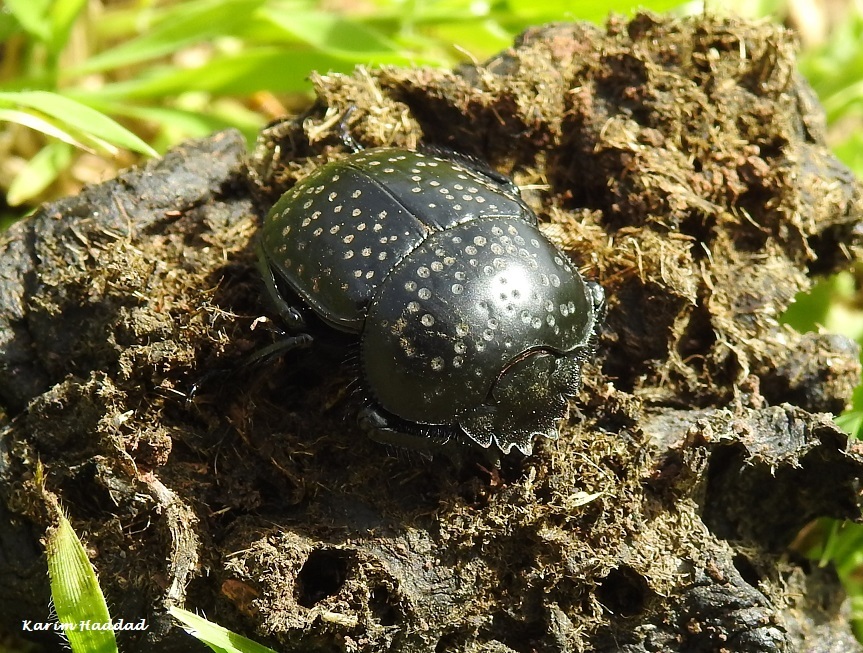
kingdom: Animalia
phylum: Arthropoda
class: Insecta
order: Coleoptera
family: Scarabaeidae
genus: Ateuchetus
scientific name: Ateuchetus
